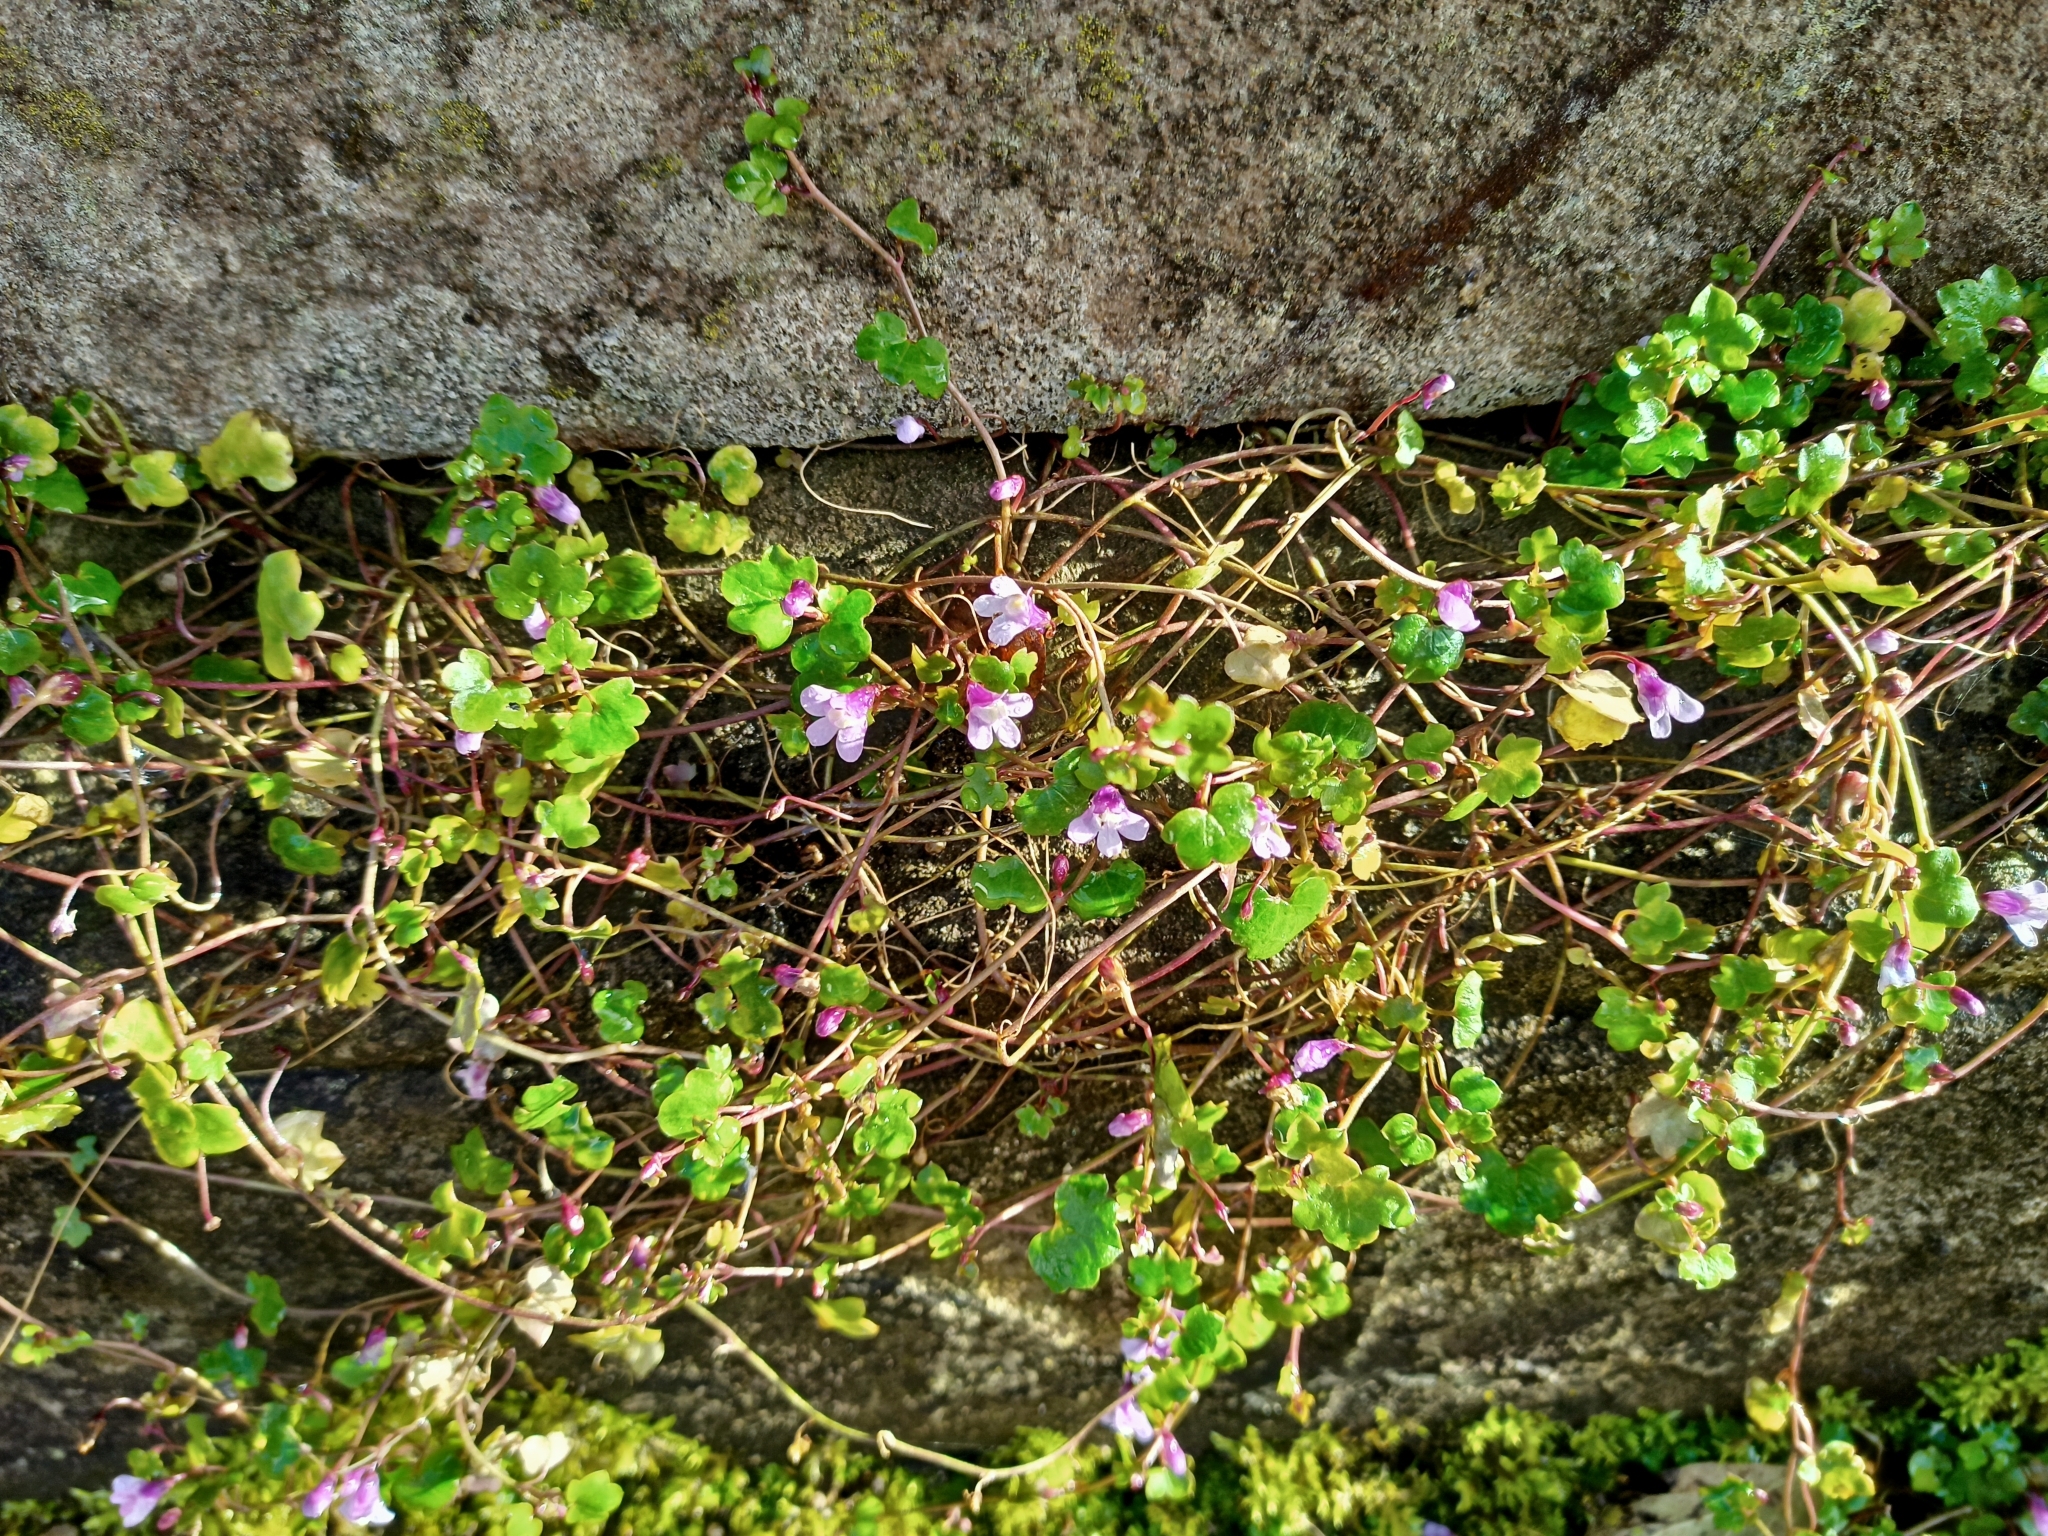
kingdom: Plantae
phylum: Tracheophyta
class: Magnoliopsida
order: Lamiales
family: Plantaginaceae
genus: Cymbalaria
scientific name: Cymbalaria muralis
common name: Ivy-leaved toadflax
